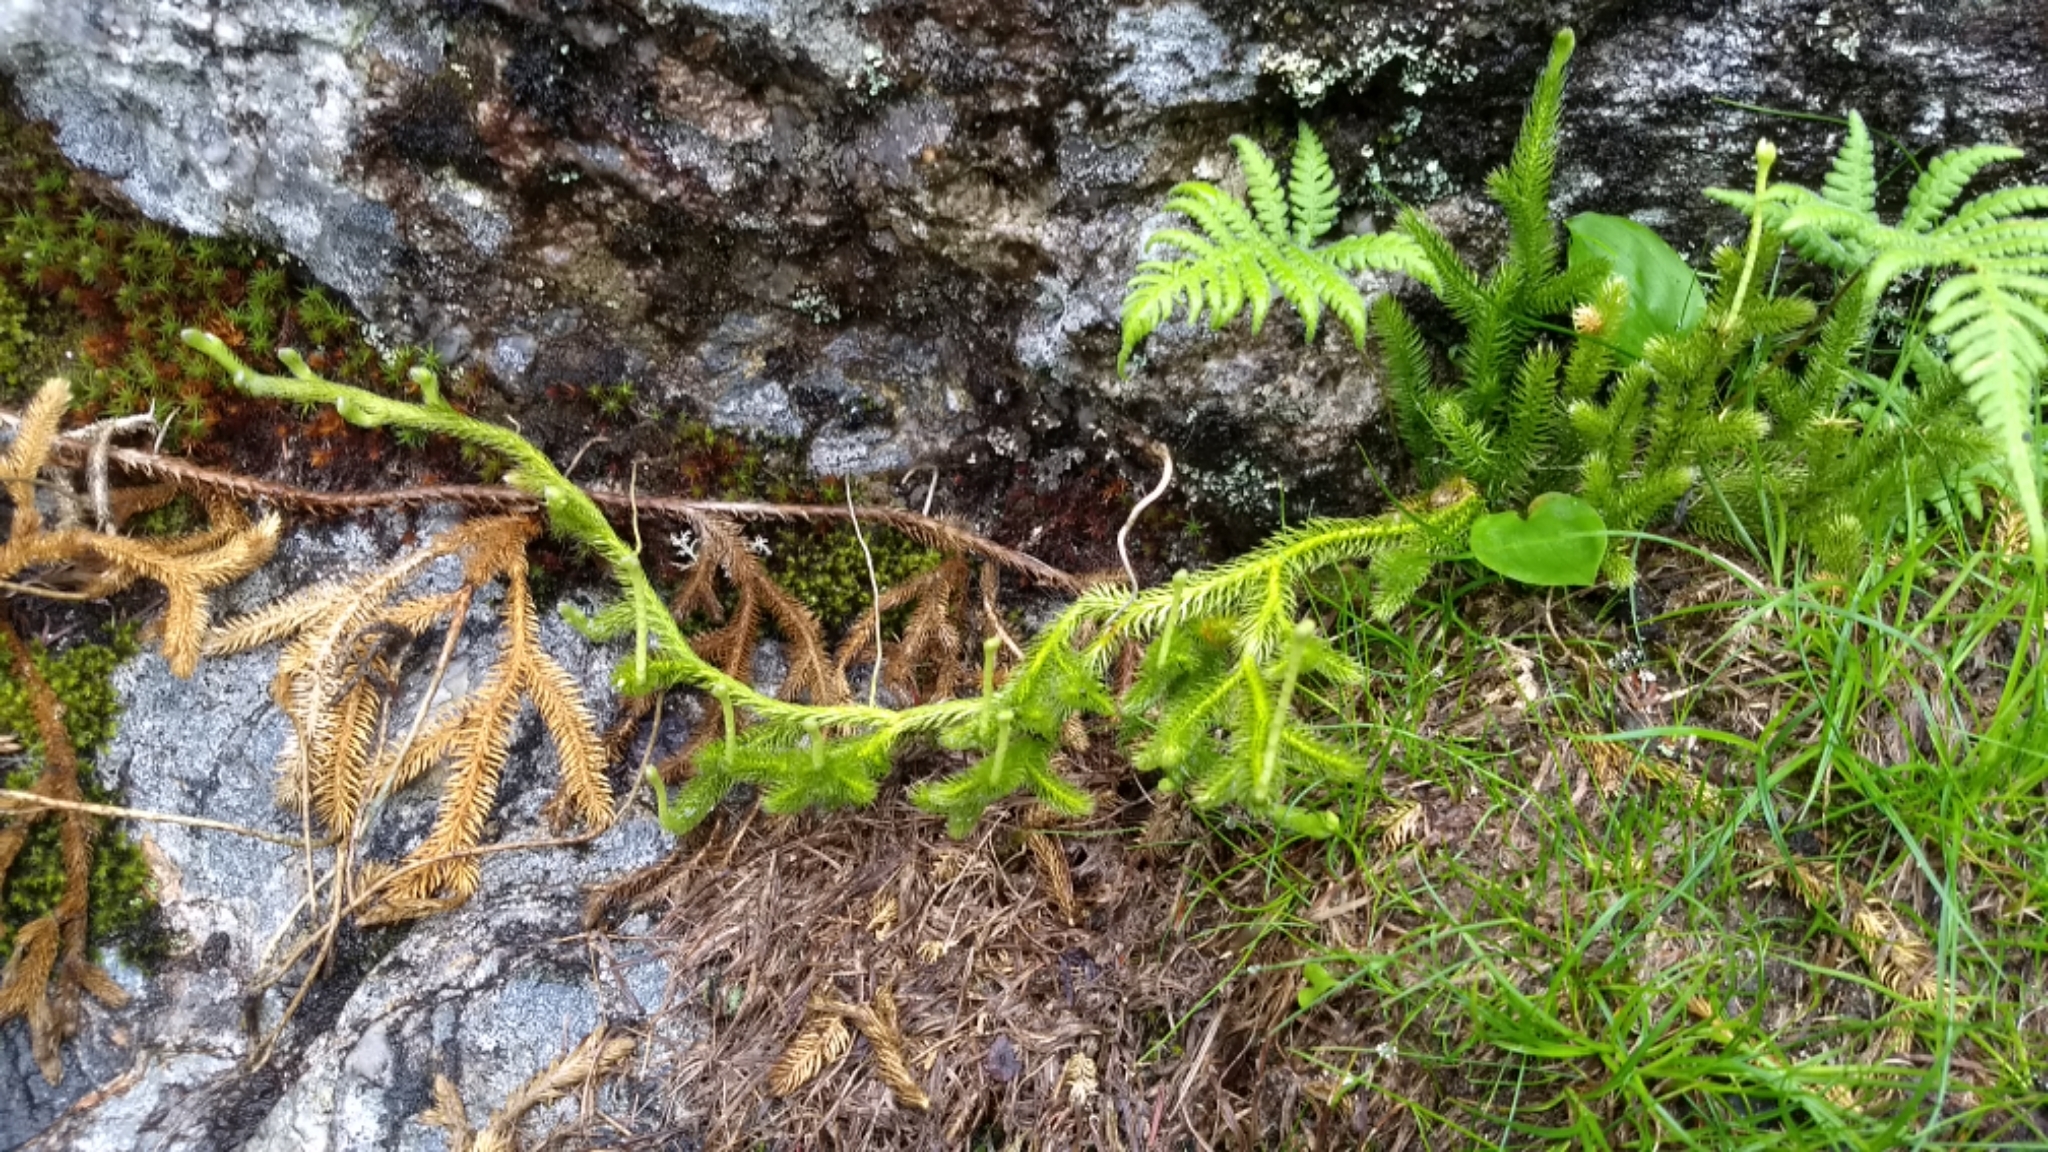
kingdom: Plantae
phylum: Tracheophyta
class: Lycopodiopsida
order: Lycopodiales
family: Lycopodiaceae
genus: Lycopodium
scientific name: Lycopodium clavatum
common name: Stag's-horn clubmoss
